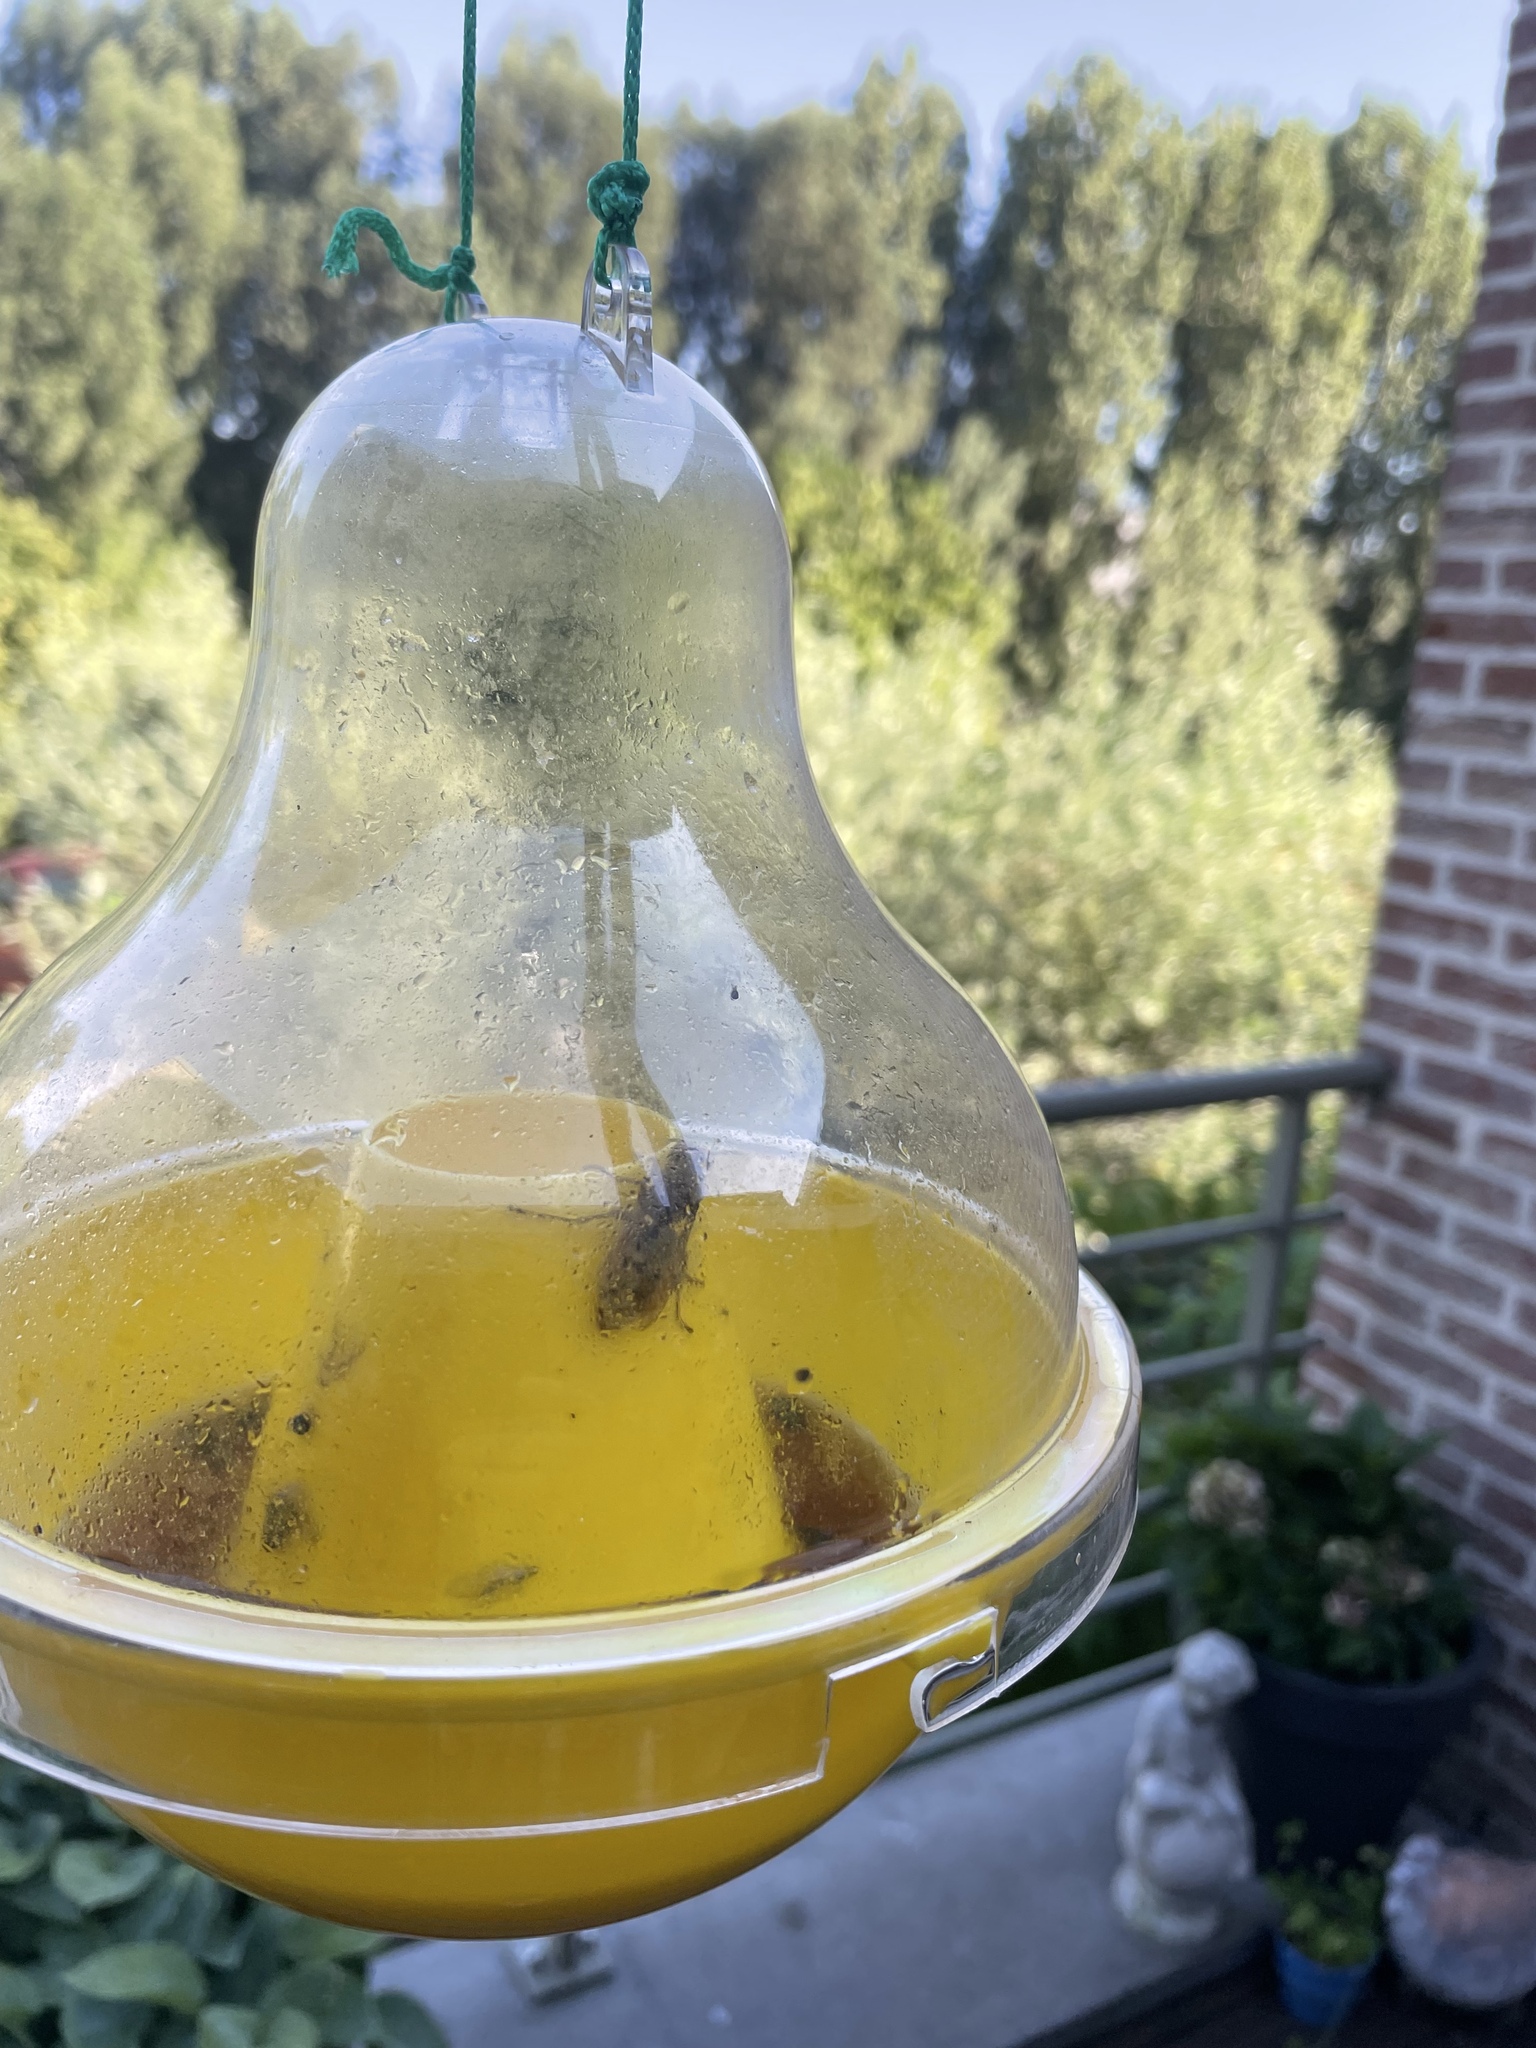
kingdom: Animalia
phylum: Arthropoda
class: Insecta
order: Hymenoptera
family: Vespidae
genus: Vespa
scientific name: Vespa crabro
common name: Hornet
